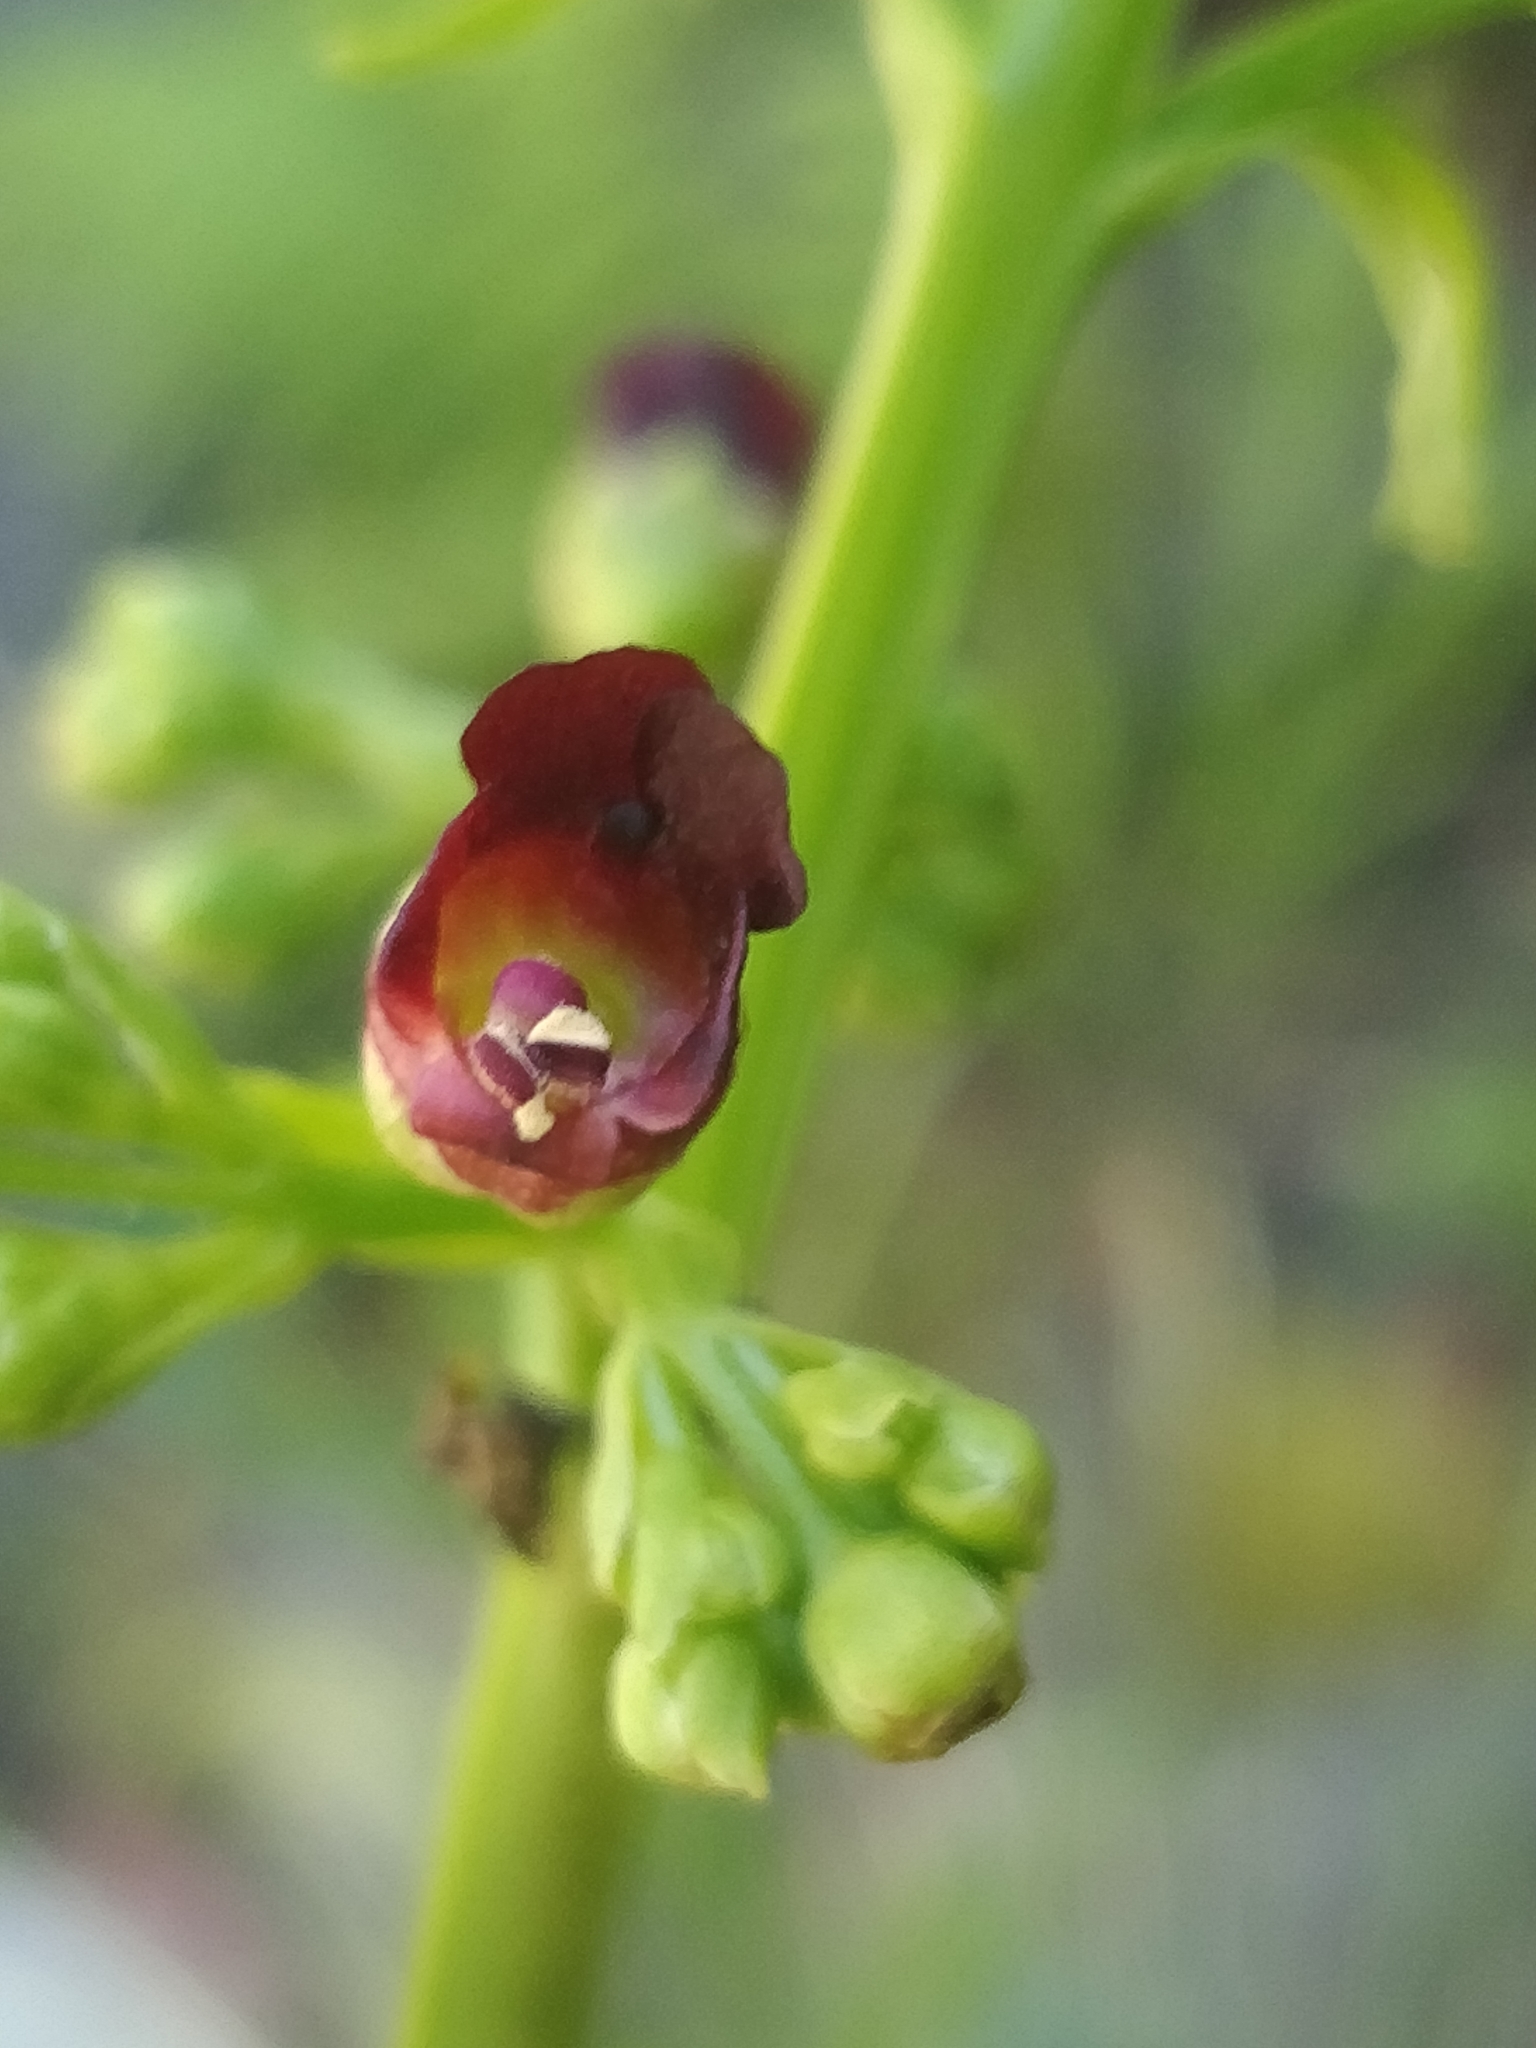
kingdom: Plantae
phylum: Tracheophyta
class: Magnoliopsida
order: Lamiales
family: Scrophulariaceae
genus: Scrophularia
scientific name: Scrophularia hirta
